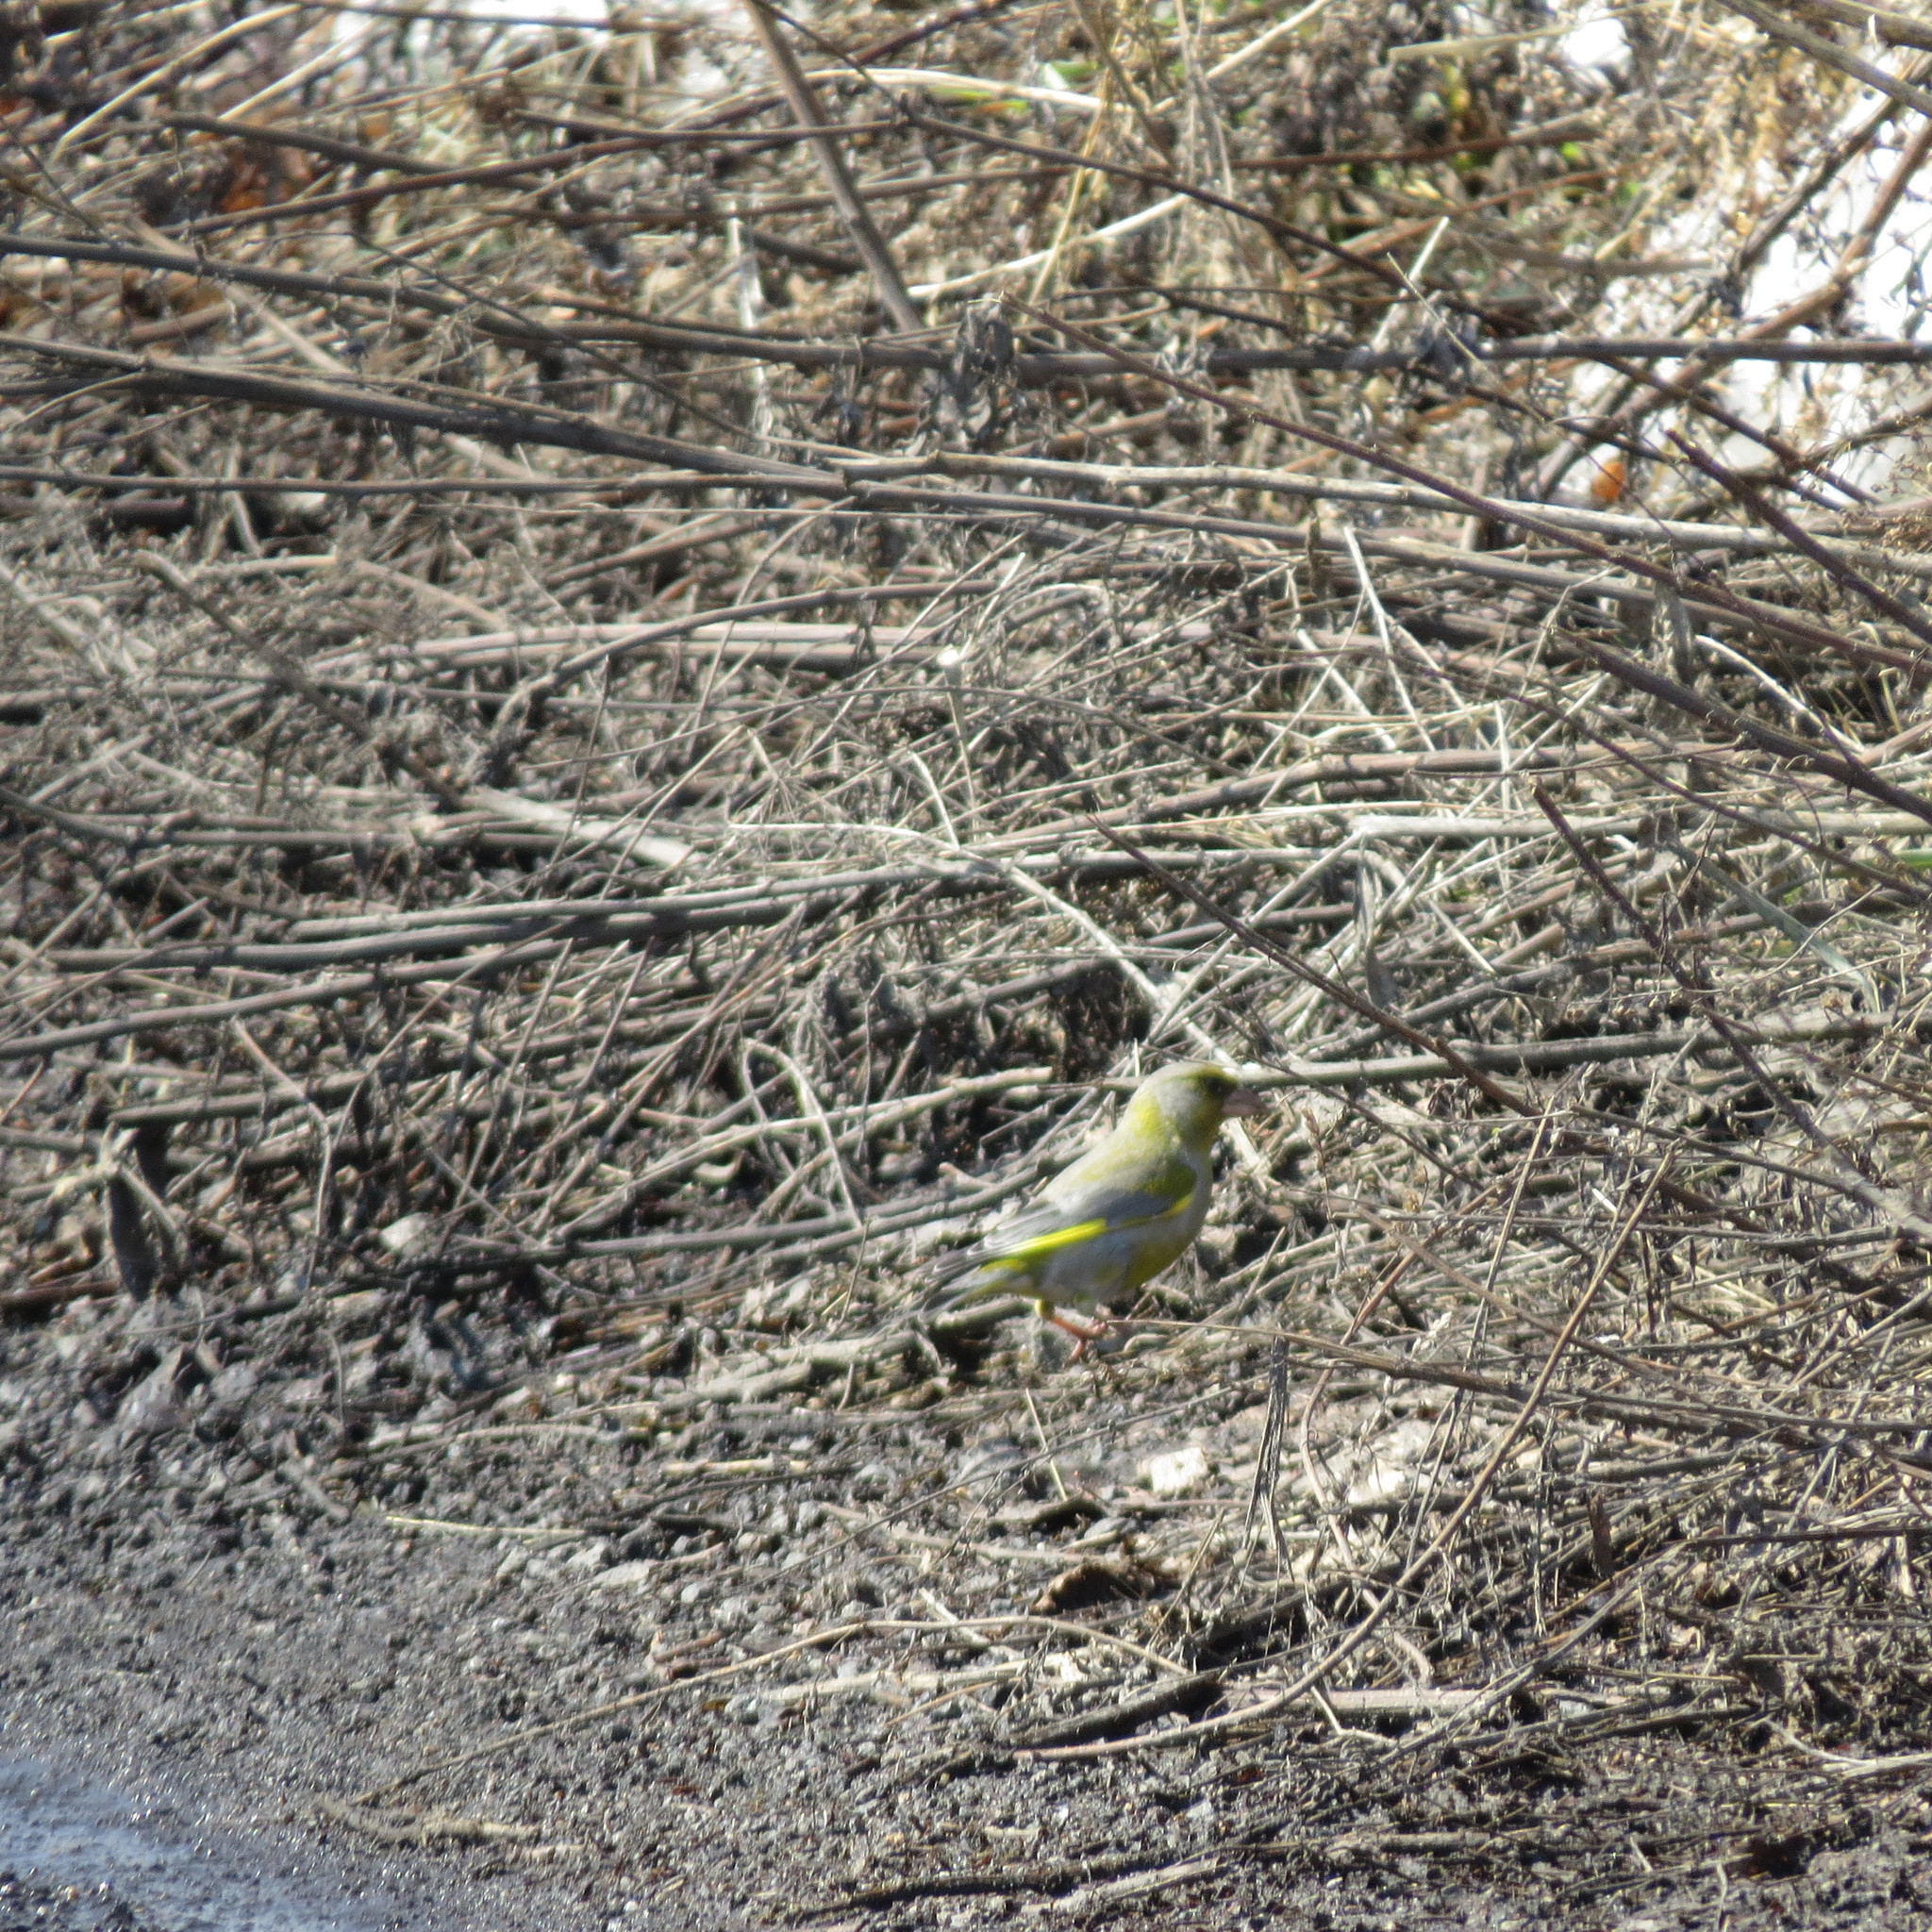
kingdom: Plantae
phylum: Tracheophyta
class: Liliopsida
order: Poales
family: Poaceae
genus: Chloris
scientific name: Chloris chloris
